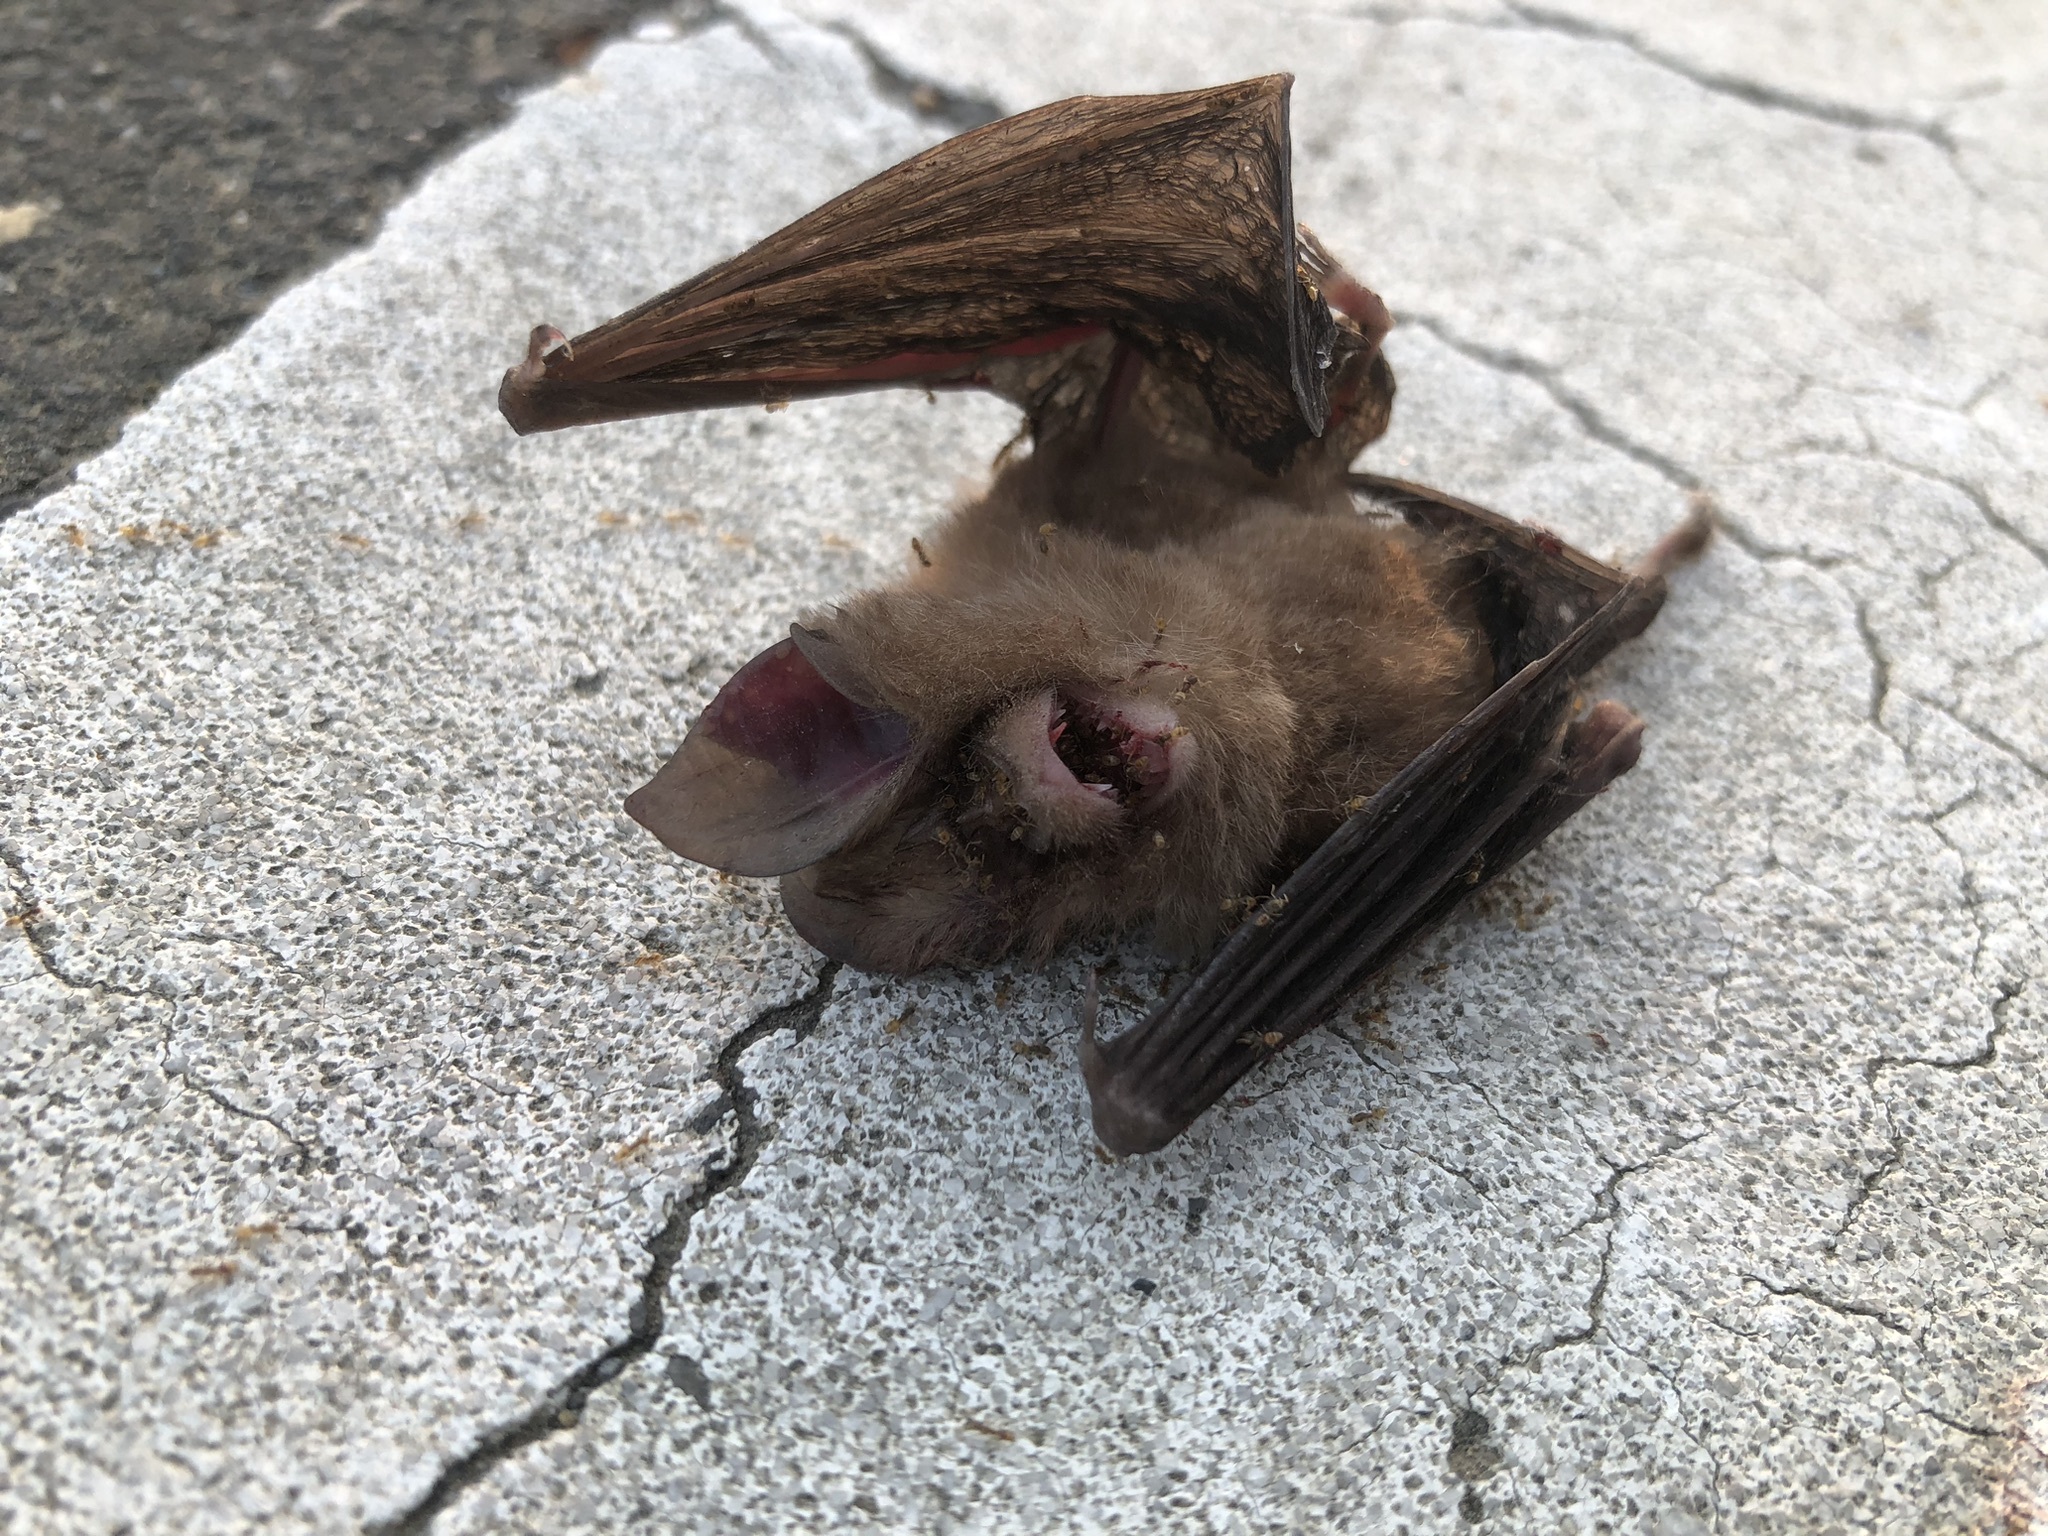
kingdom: Animalia
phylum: Chordata
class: Mammalia
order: Chiroptera
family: Rhinolophidae
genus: Rhinolophus
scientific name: Rhinolophus monoceros
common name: Formosan lesser horseshoe bat
